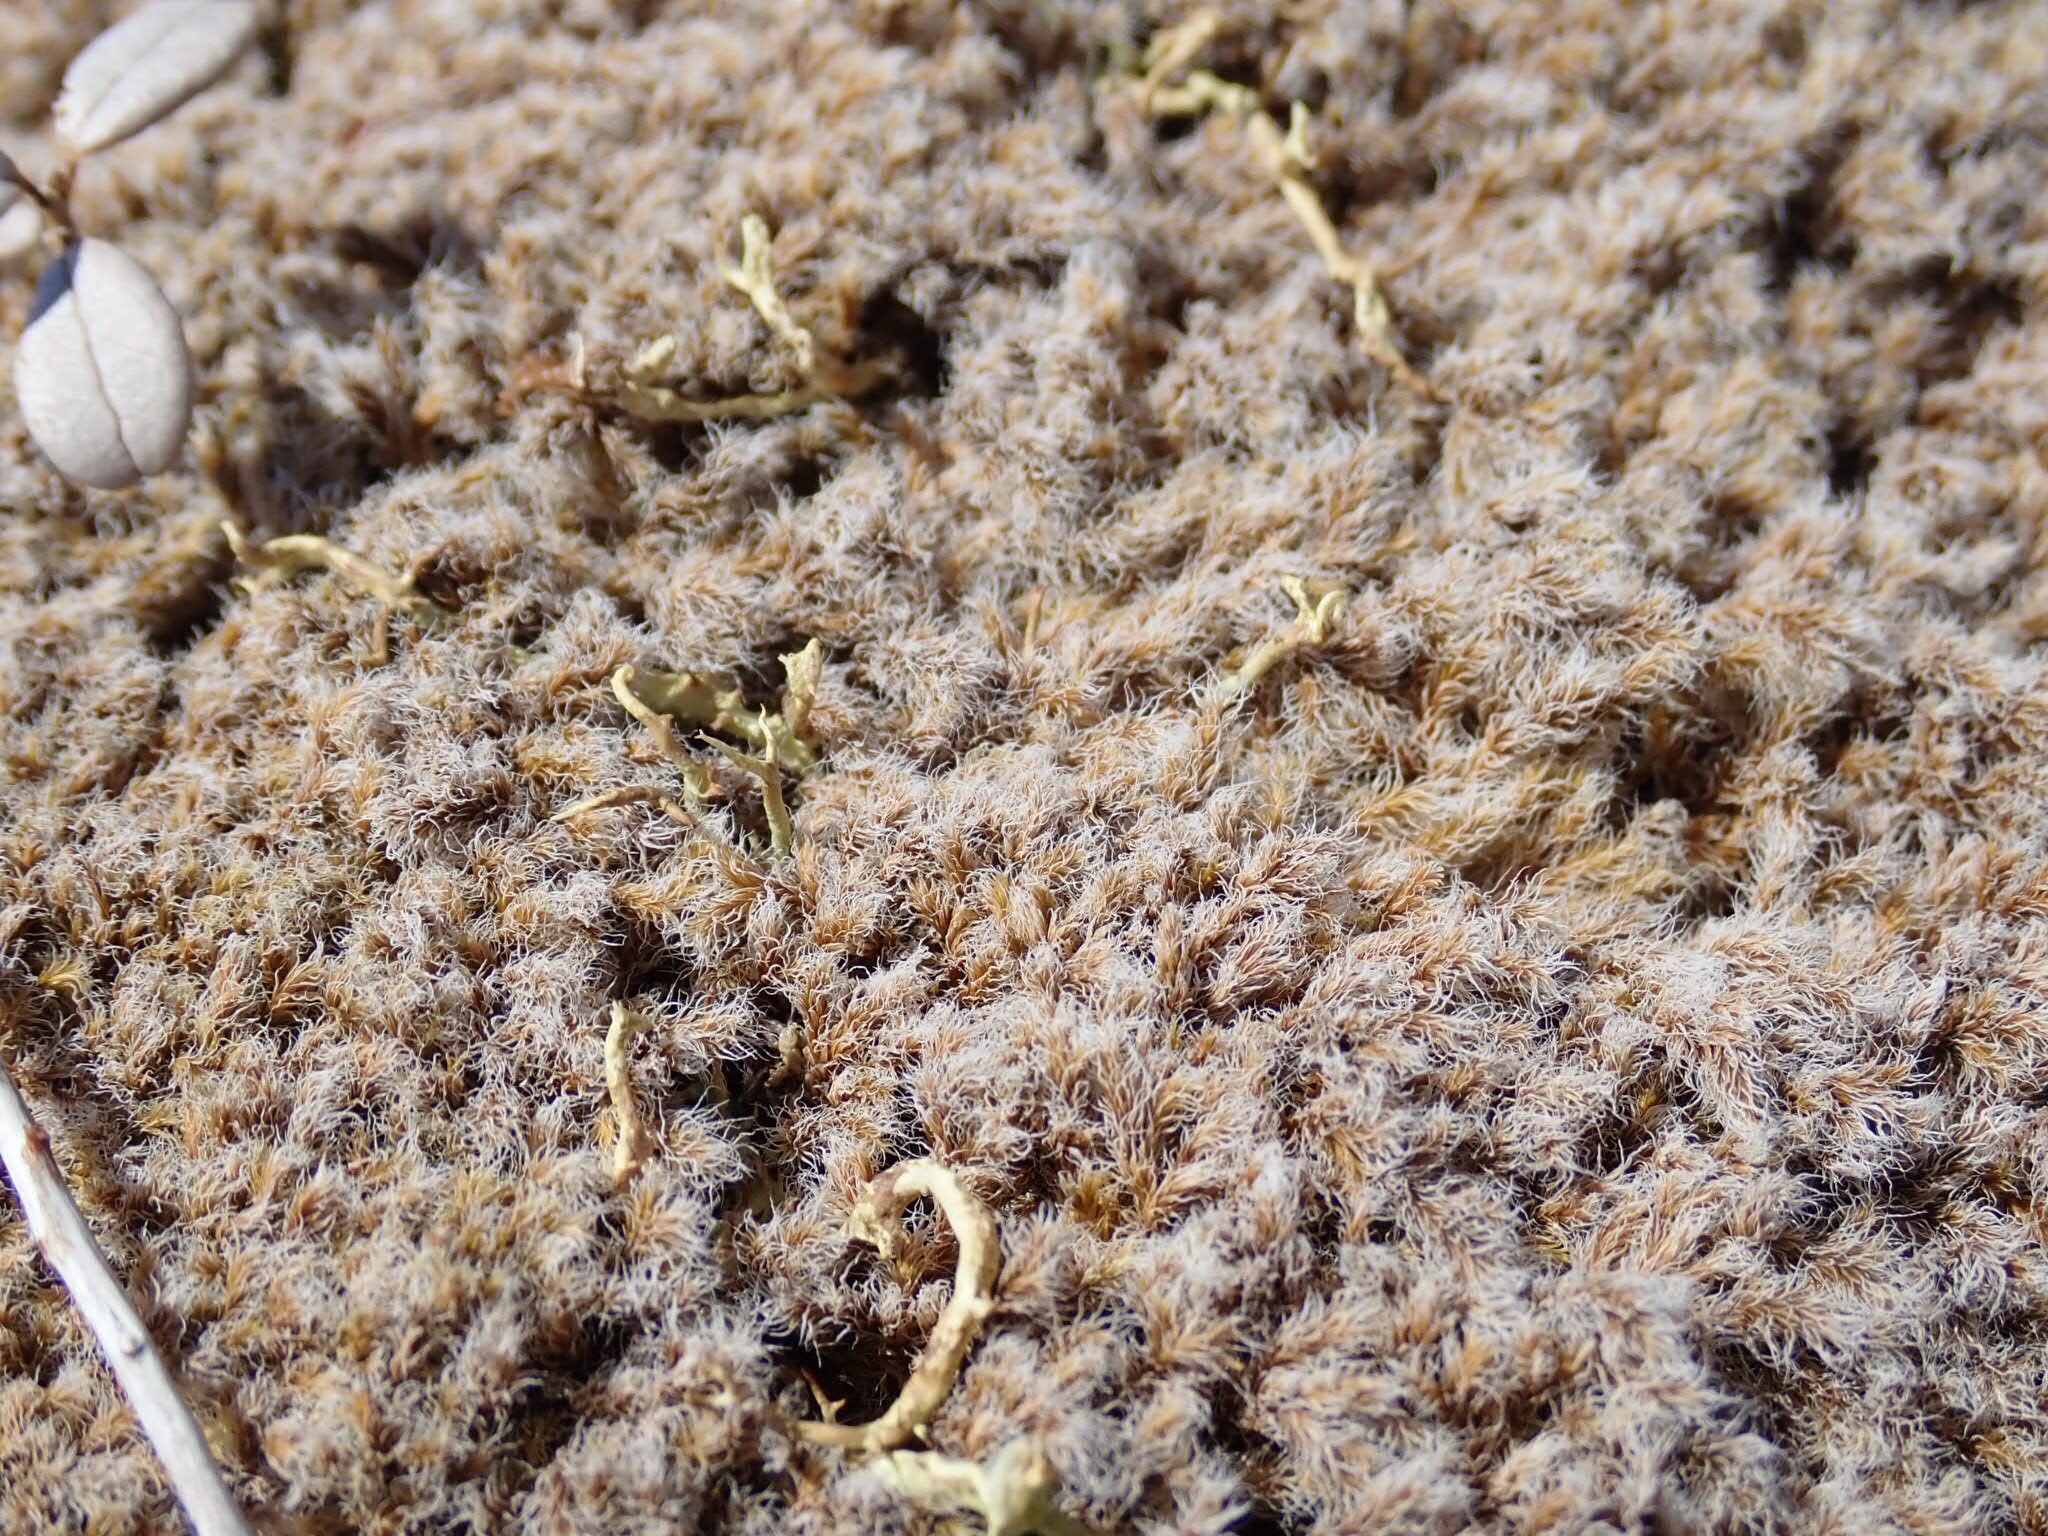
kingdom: Plantae
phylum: Bryophyta
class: Bryopsida
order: Grimmiales
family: Grimmiaceae
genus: Racomitrium
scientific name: Racomitrium lanuginosum
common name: Hoary rock moss
